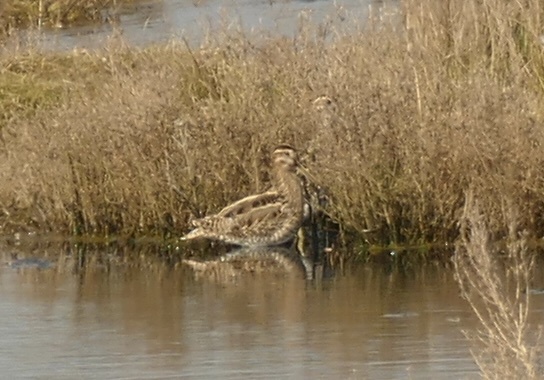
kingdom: Animalia
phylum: Chordata
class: Aves
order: Charadriiformes
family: Scolopacidae
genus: Gallinago
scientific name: Gallinago gallinago
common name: Common snipe
